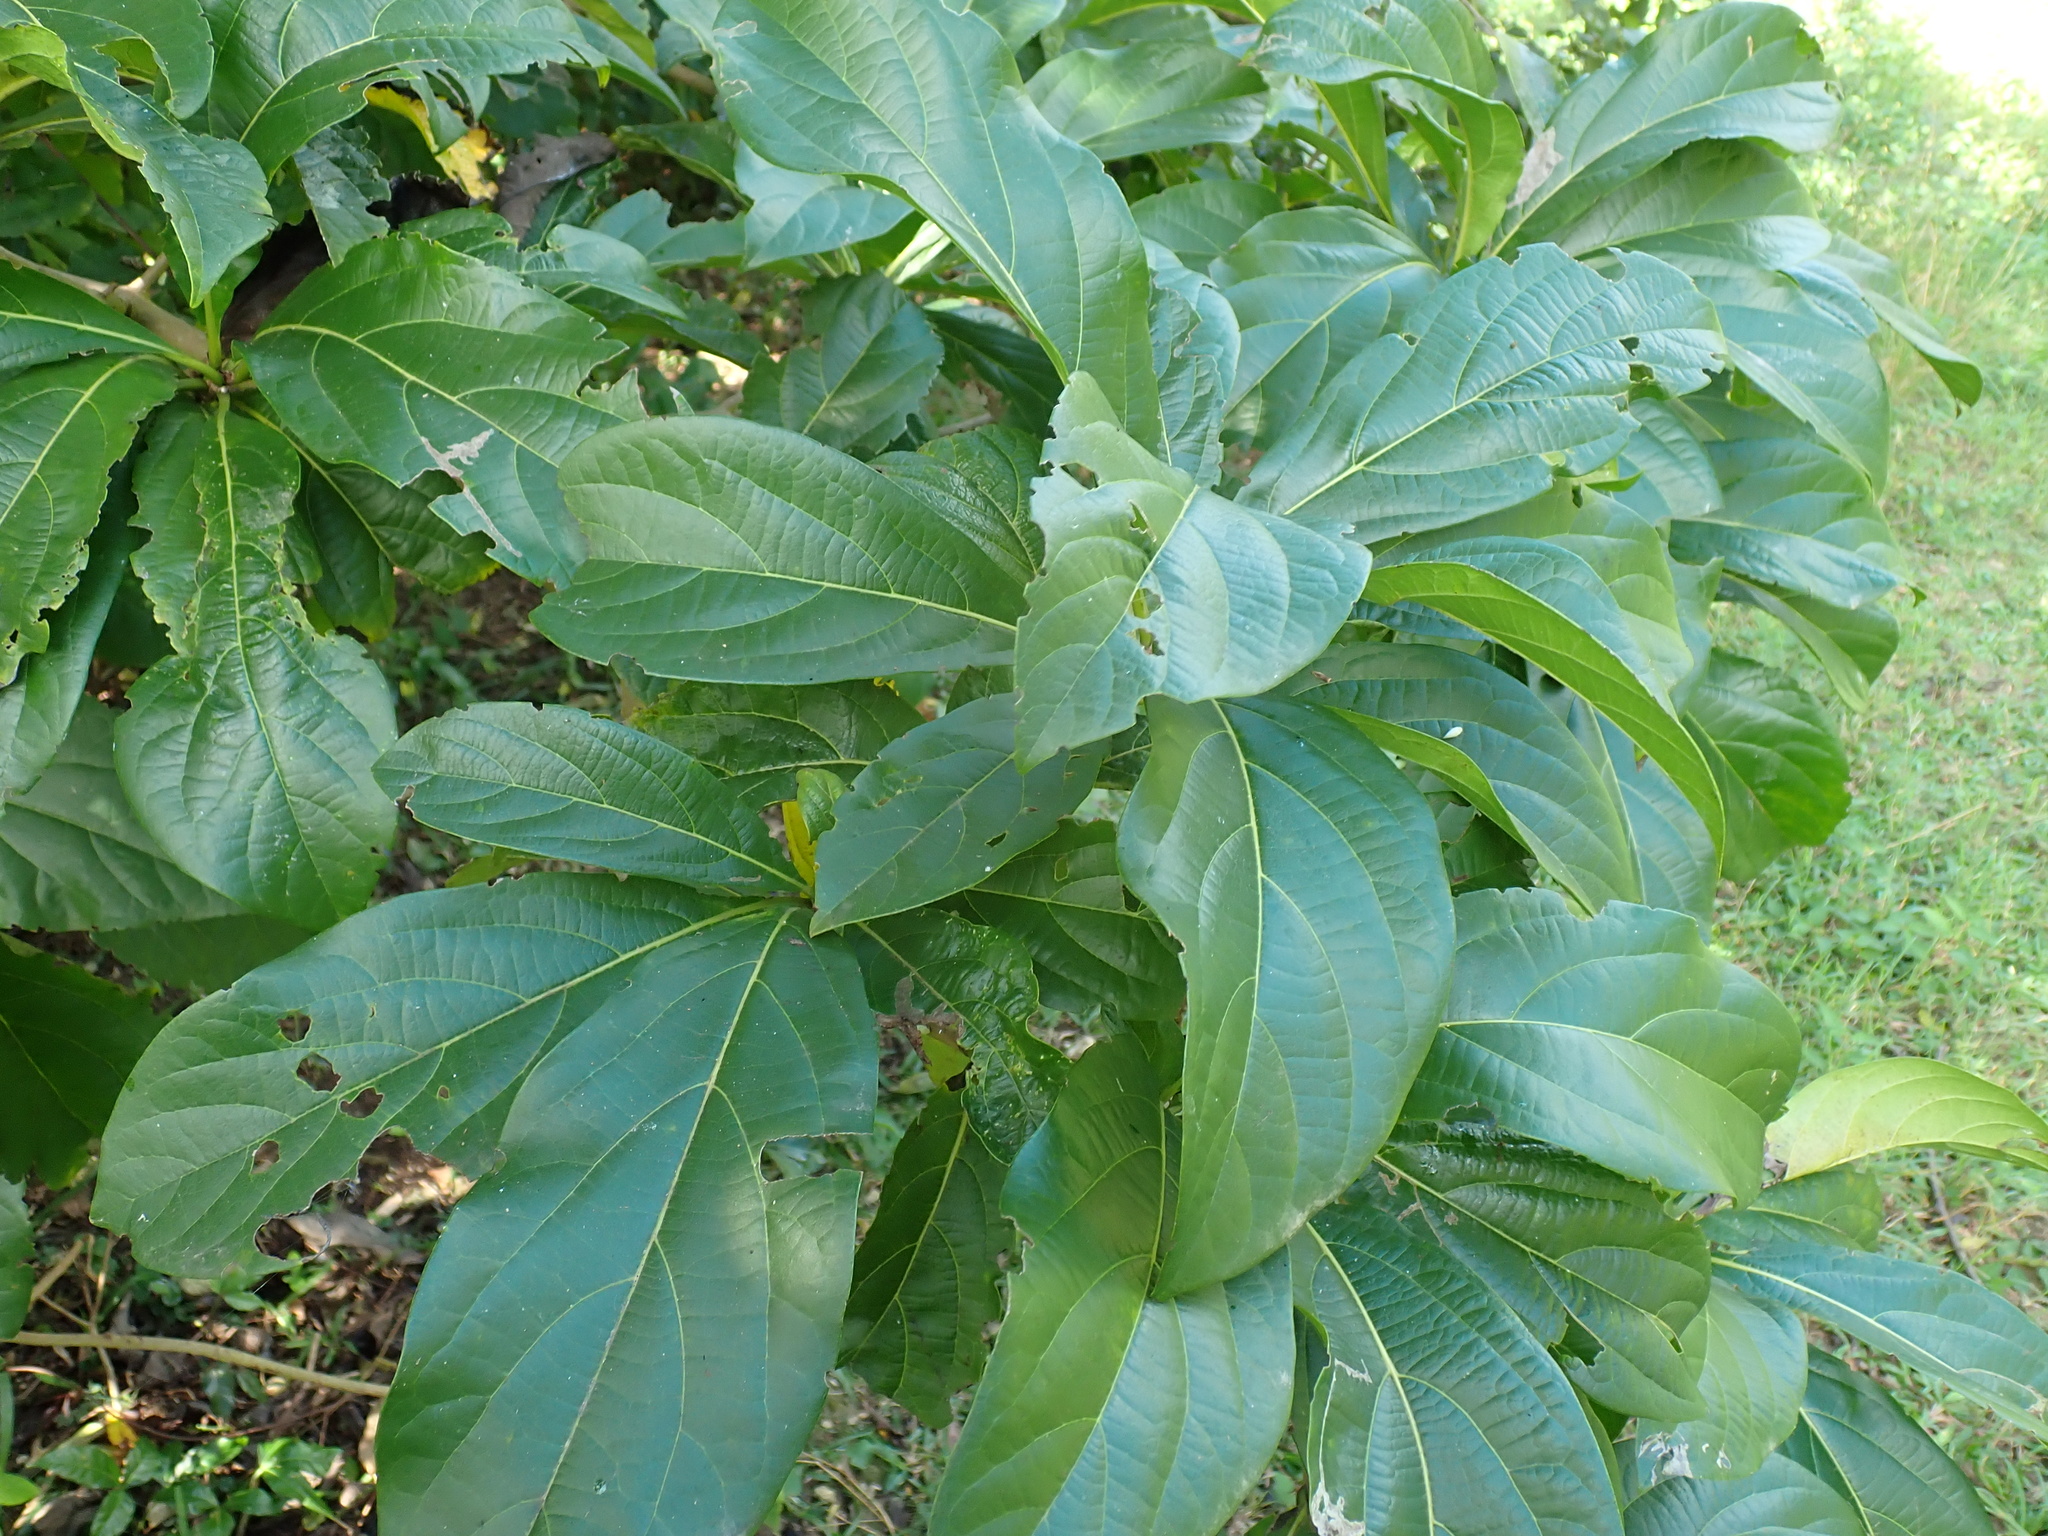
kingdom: Plantae
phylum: Tracheophyta
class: Magnoliopsida
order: Boraginales
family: Cordiaceae
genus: Cordia
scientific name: Cordia collococca
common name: Clammy cherry
